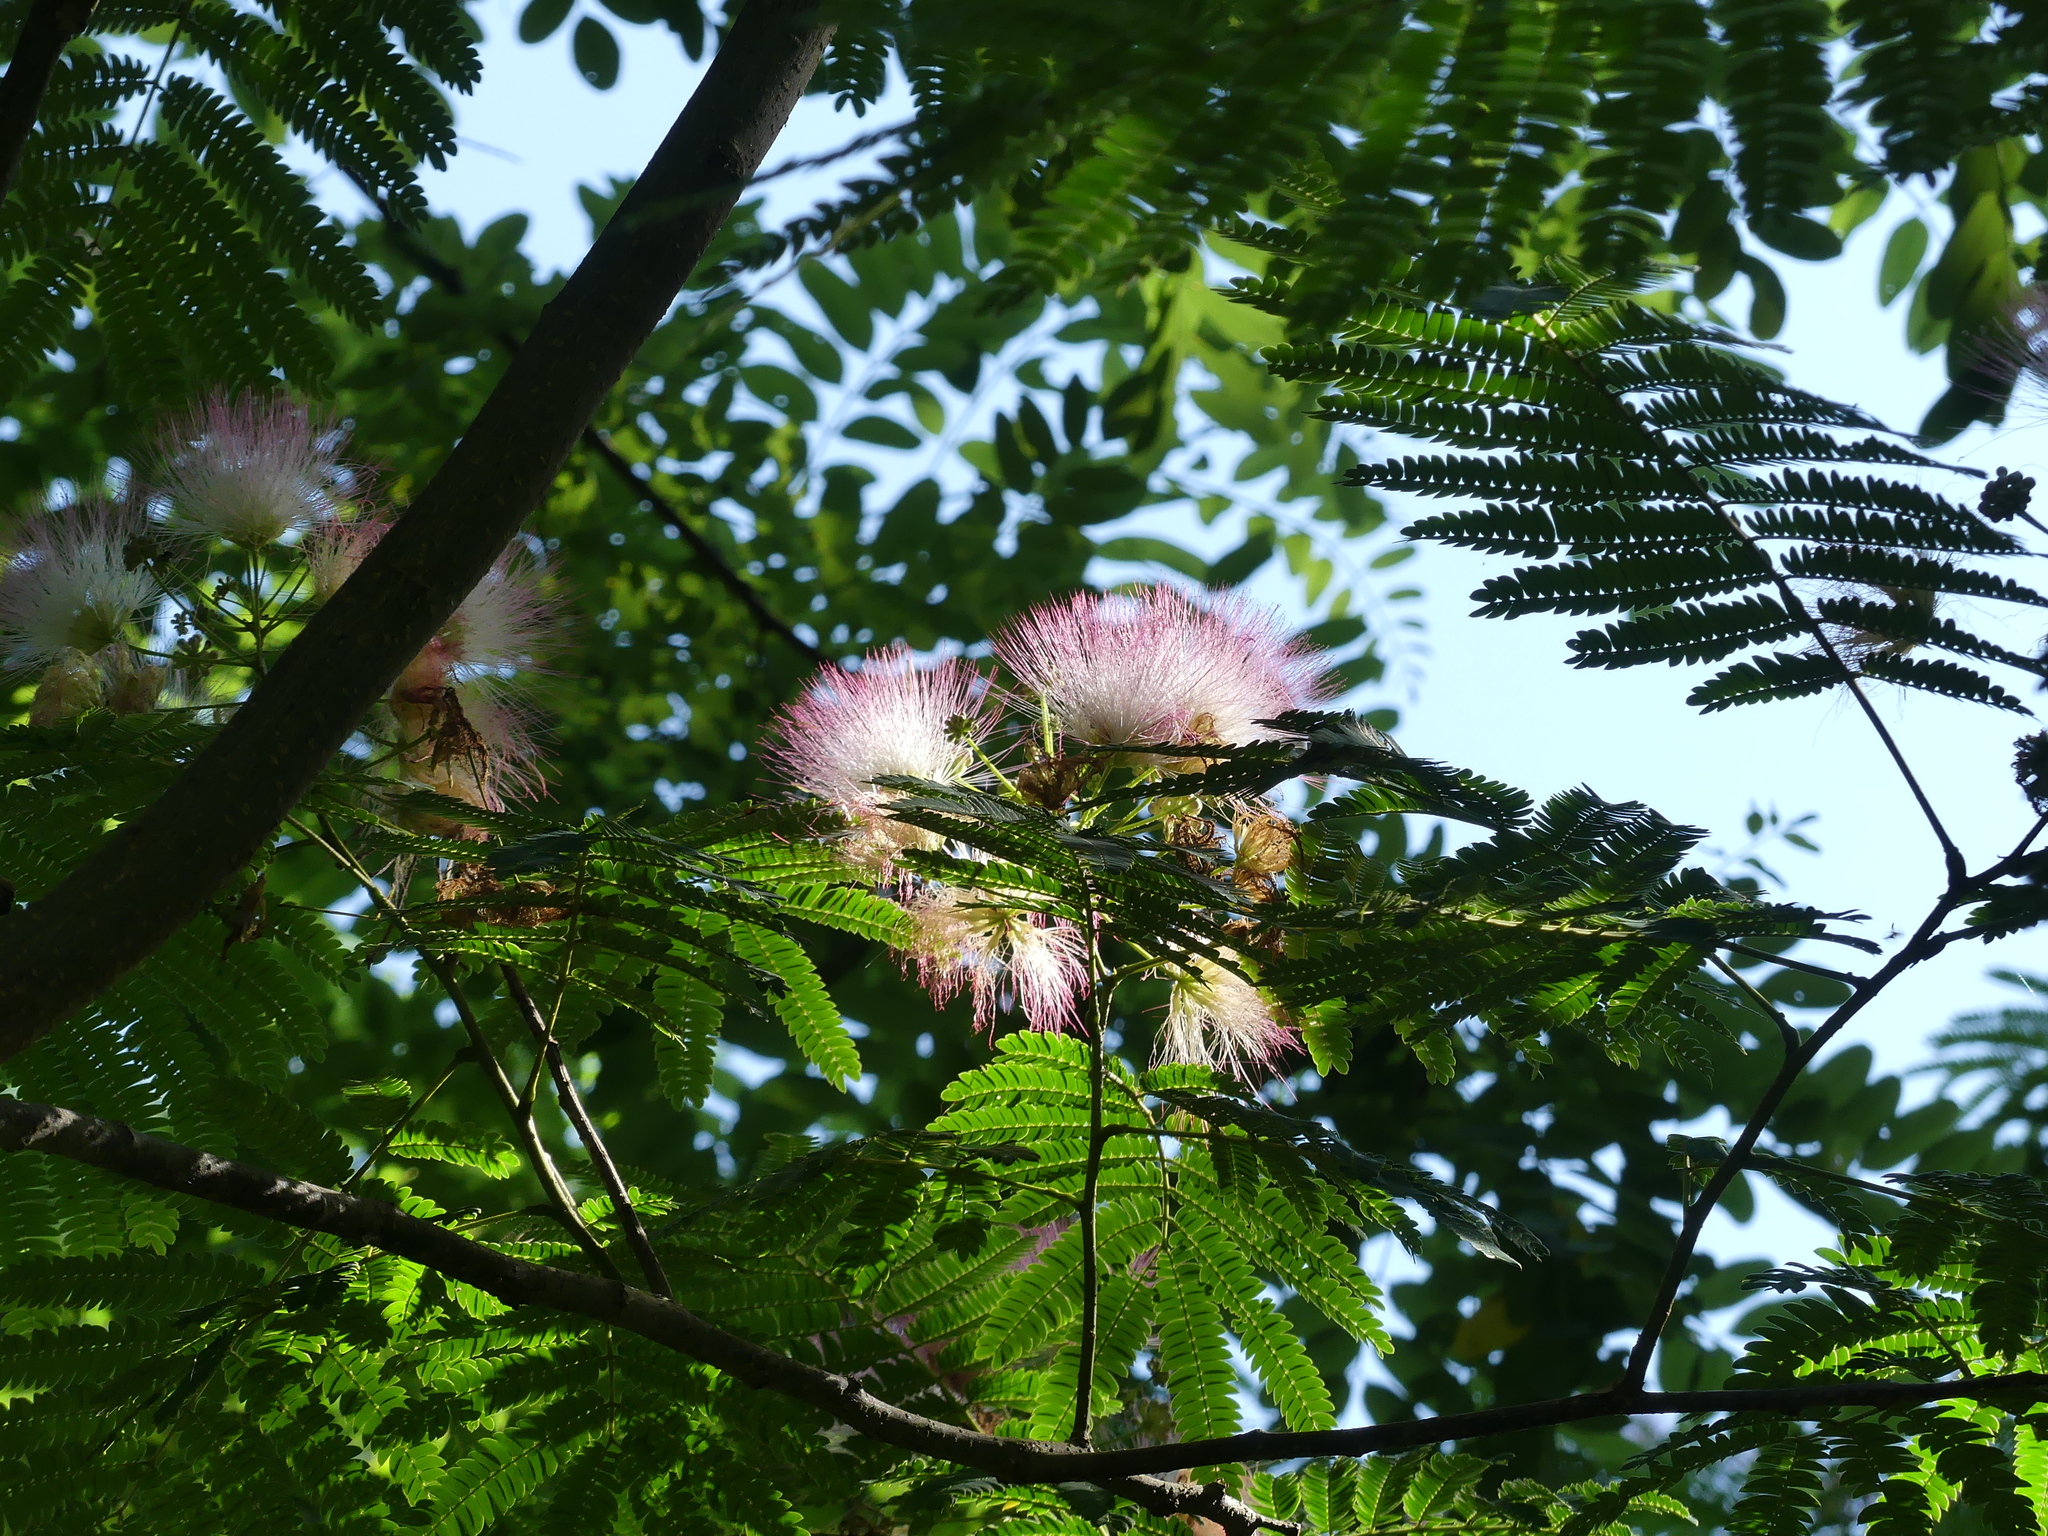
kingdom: Plantae
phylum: Tracheophyta
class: Magnoliopsida
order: Fabales
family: Fabaceae
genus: Albizia
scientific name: Albizia julibrissin
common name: Silktree
